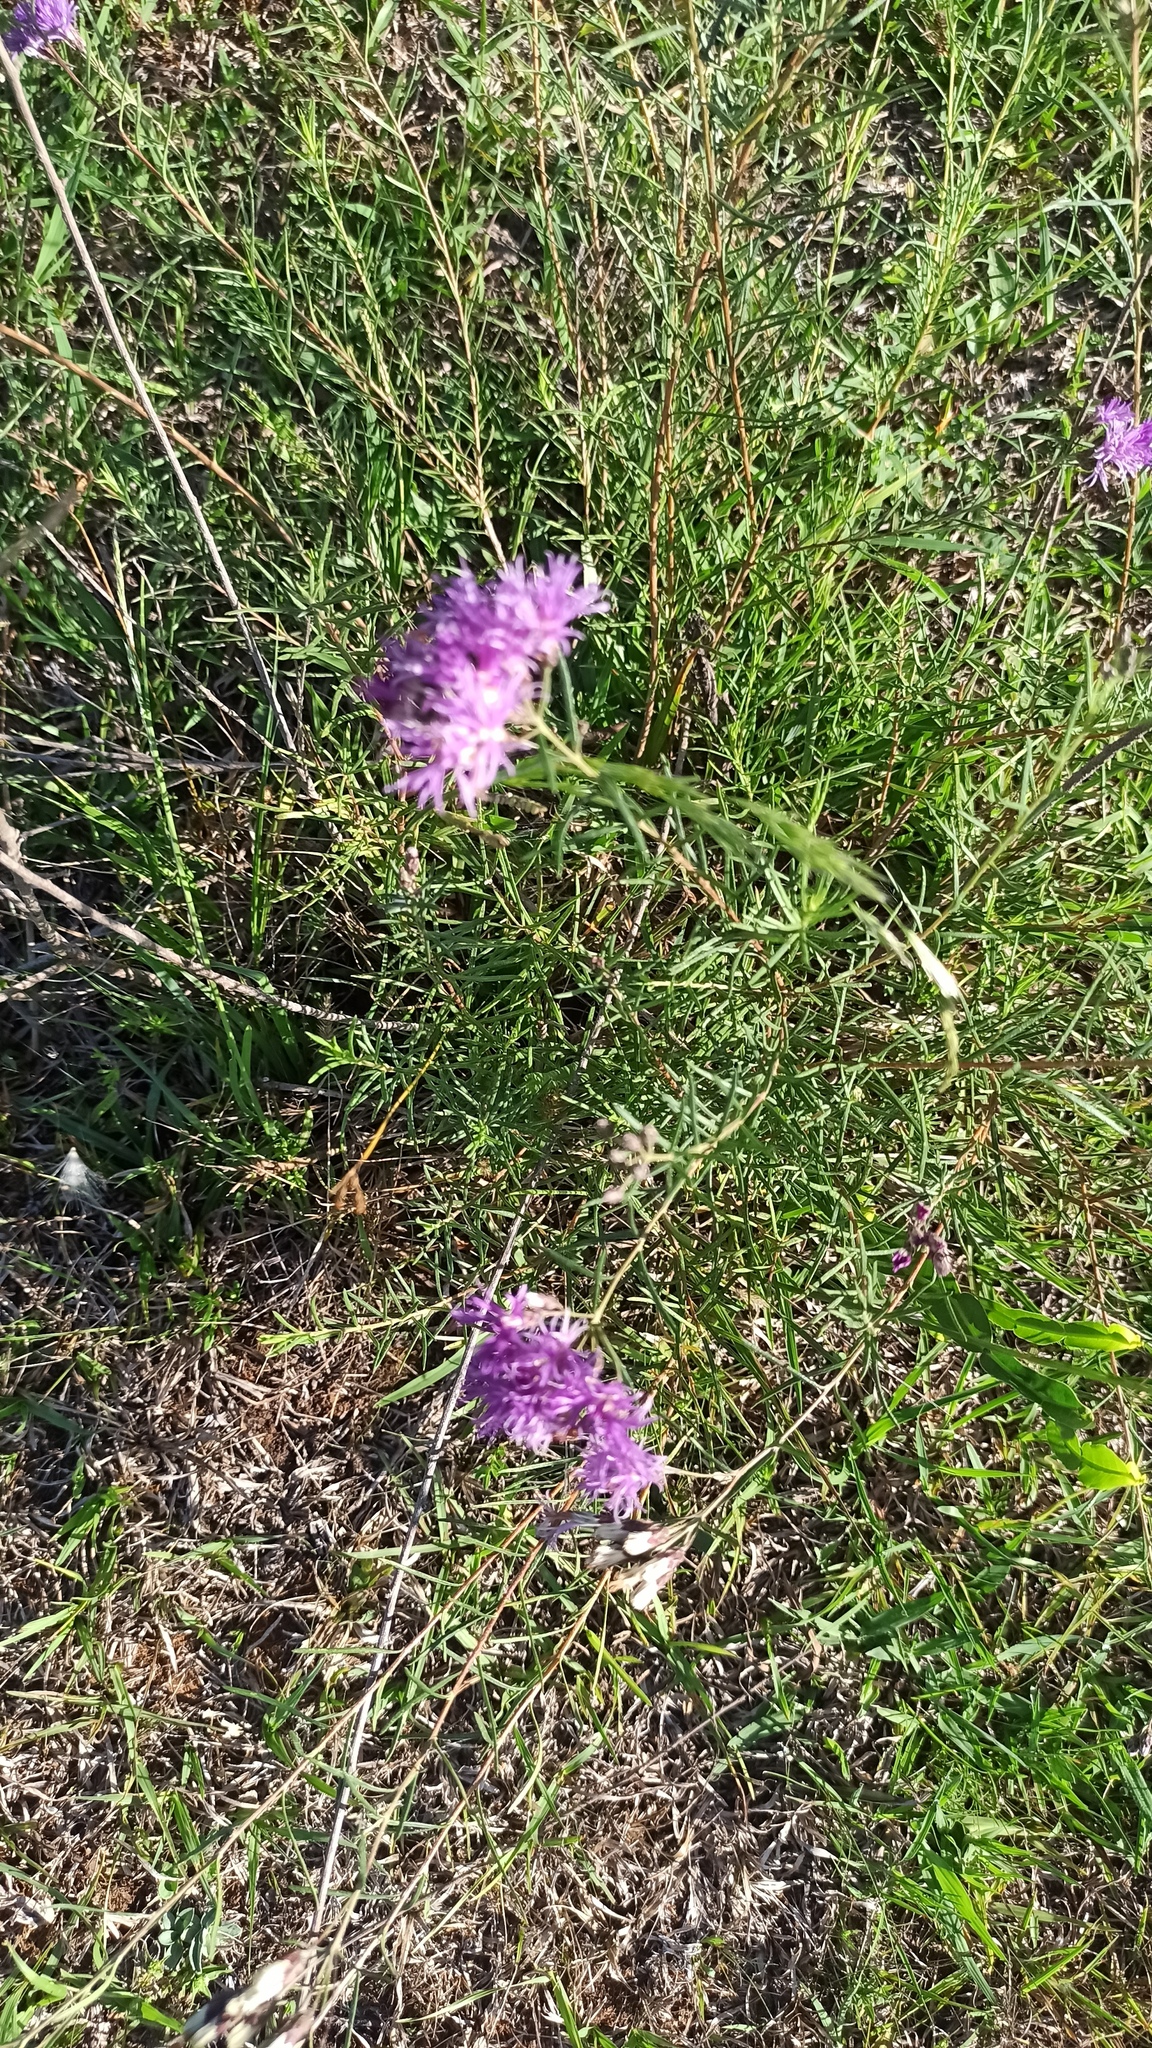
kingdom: Plantae
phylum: Tracheophyta
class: Magnoliopsida
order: Asterales
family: Asteraceae
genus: Vernonanthura
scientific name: Vernonanthura nudiflora
